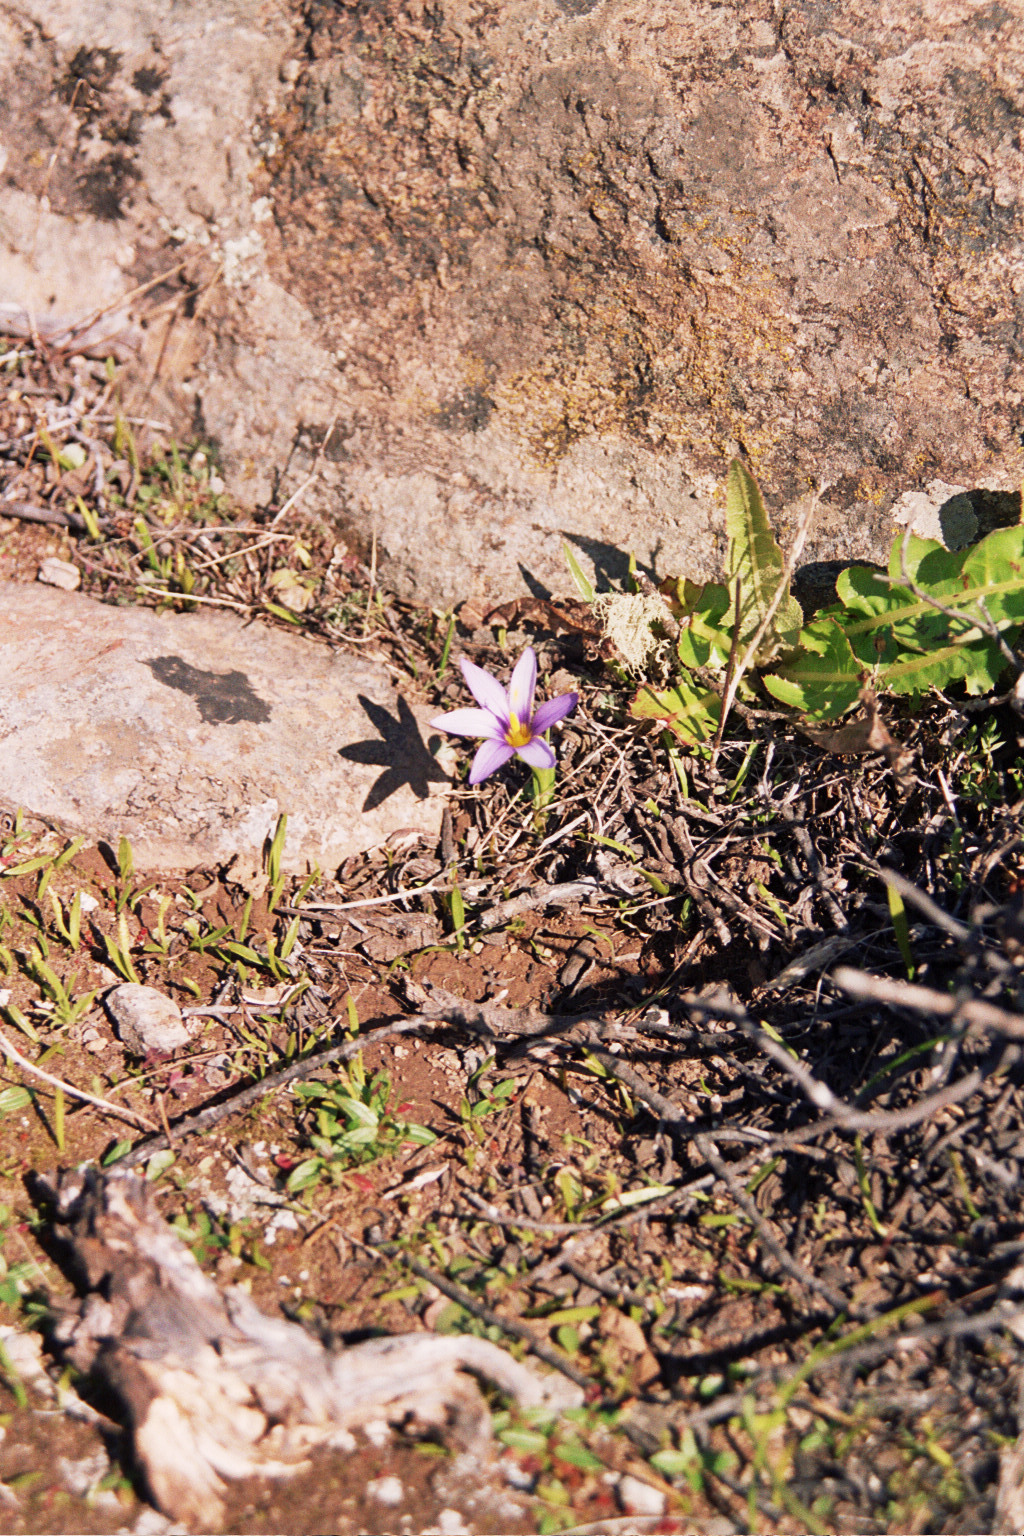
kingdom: Plantae
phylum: Tracheophyta
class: Liliopsida
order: Asparagales
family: Iridaceae
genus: Romulea
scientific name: Romulea columnae
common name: Sand-crocus
